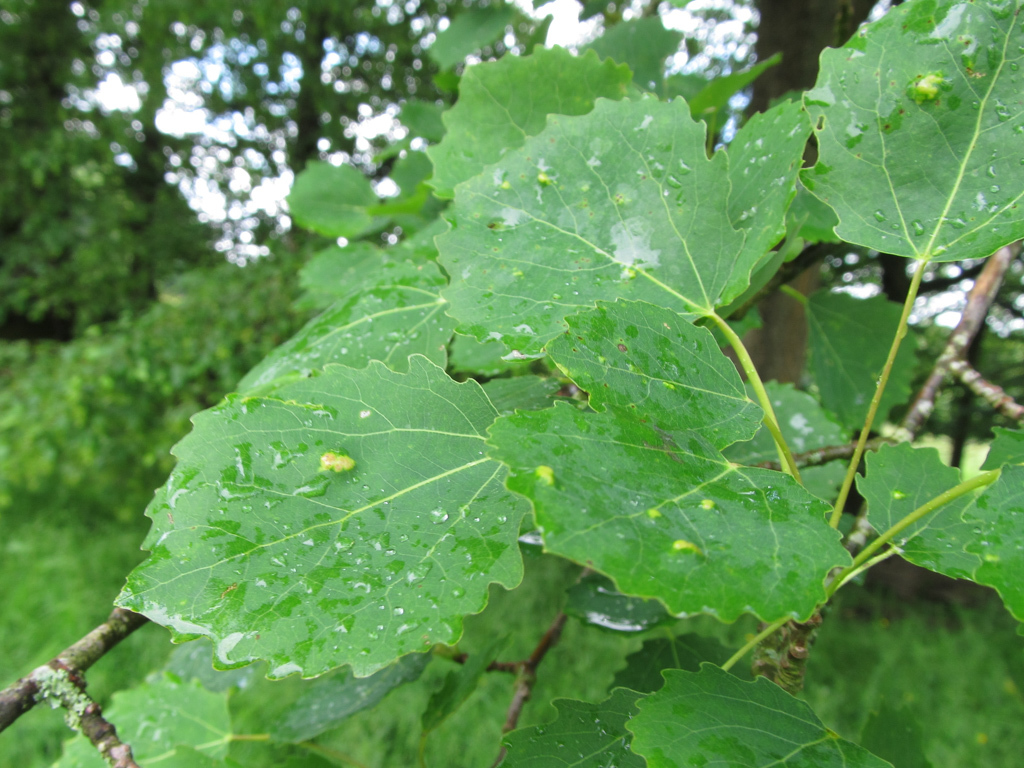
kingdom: Plantae
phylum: Tracheophyta
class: Magnoliopsida
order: Malpighiales
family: Salicaceae
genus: Populus
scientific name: Populus tremula
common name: European aspen
